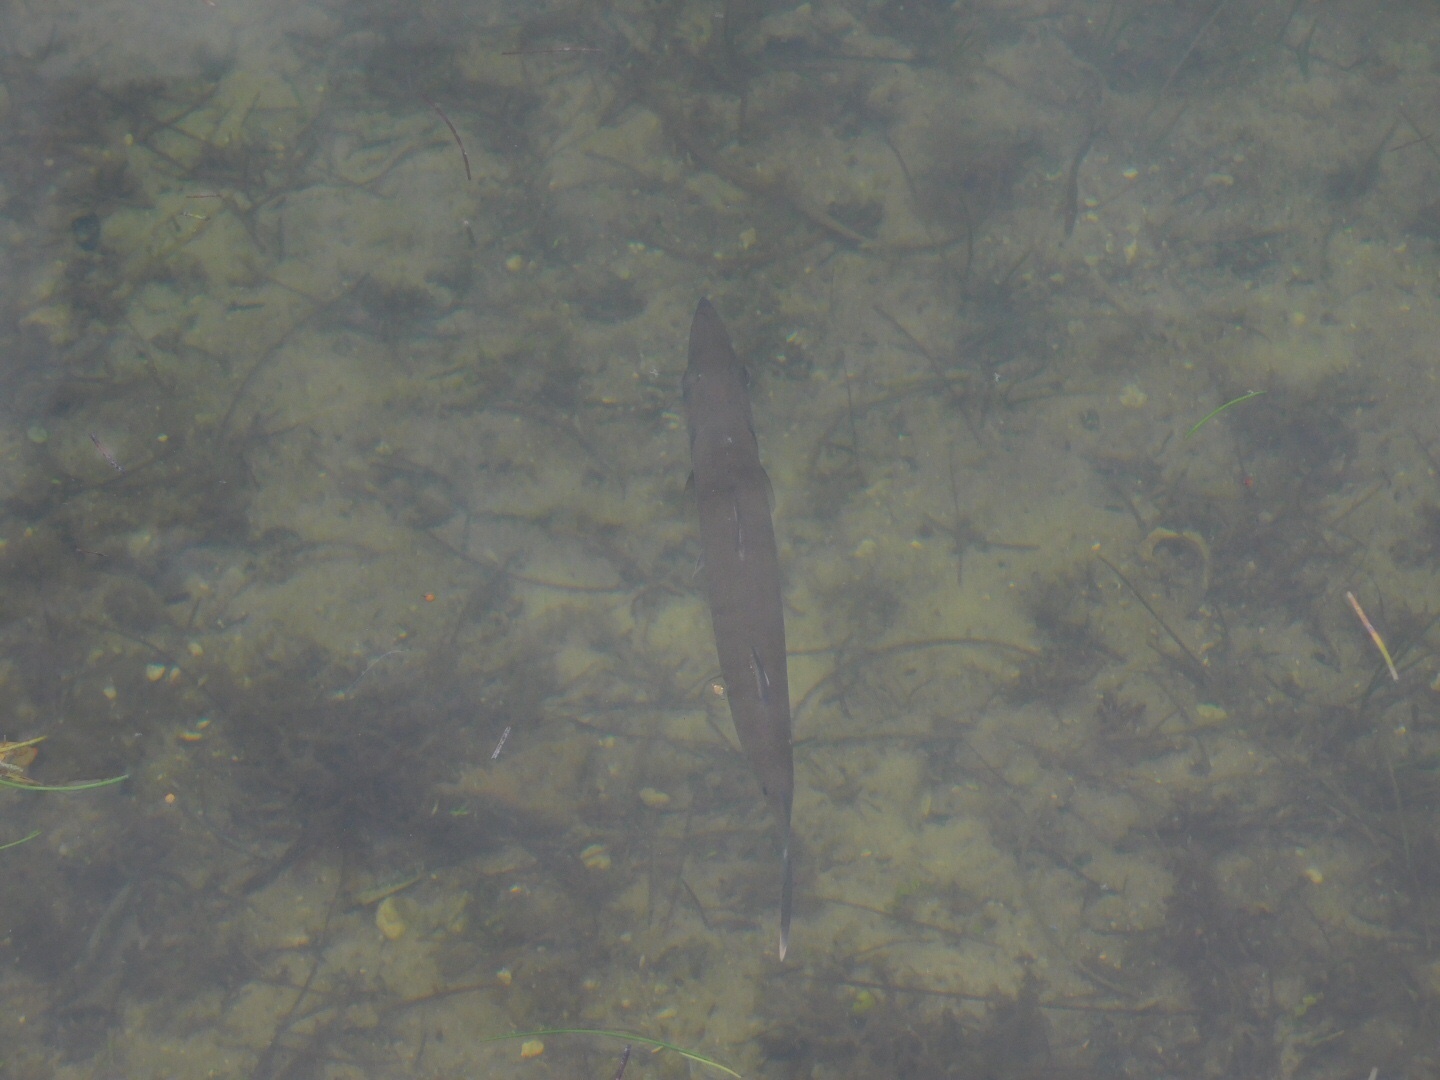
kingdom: Animalia
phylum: Chordata
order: Perciformes
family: Sphyraenidae
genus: Sphyraena
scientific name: Sphyraena barracuda
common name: Great barracuda
